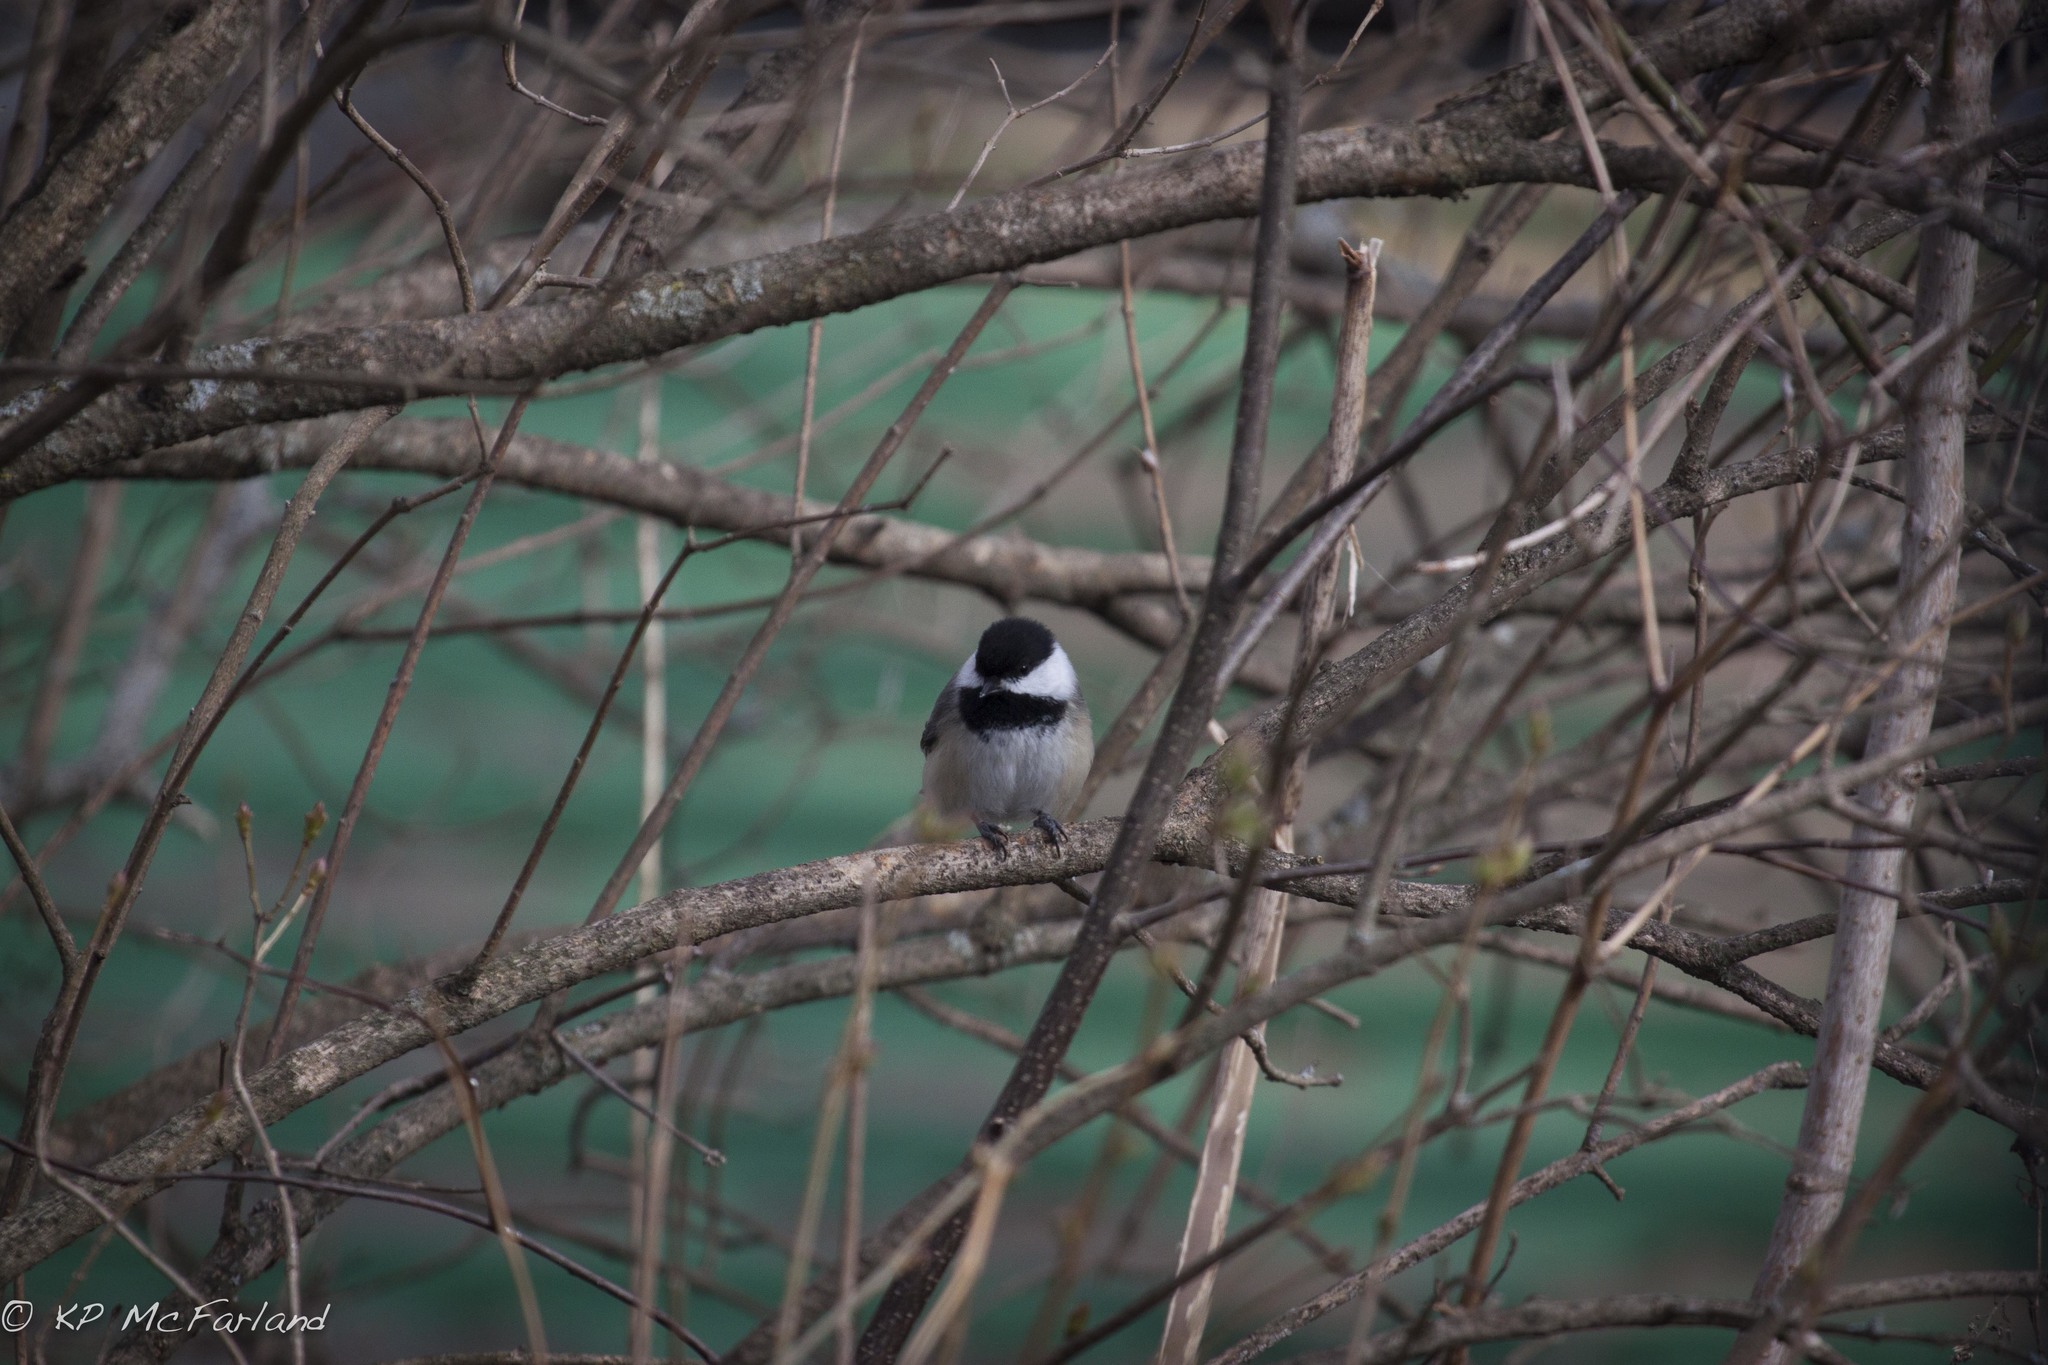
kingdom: Animalia
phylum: Chordata
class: Aves
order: Passeriformes
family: Paridae
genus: Poecile
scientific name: Poecile atricapillus
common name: Black-capped chickadee
